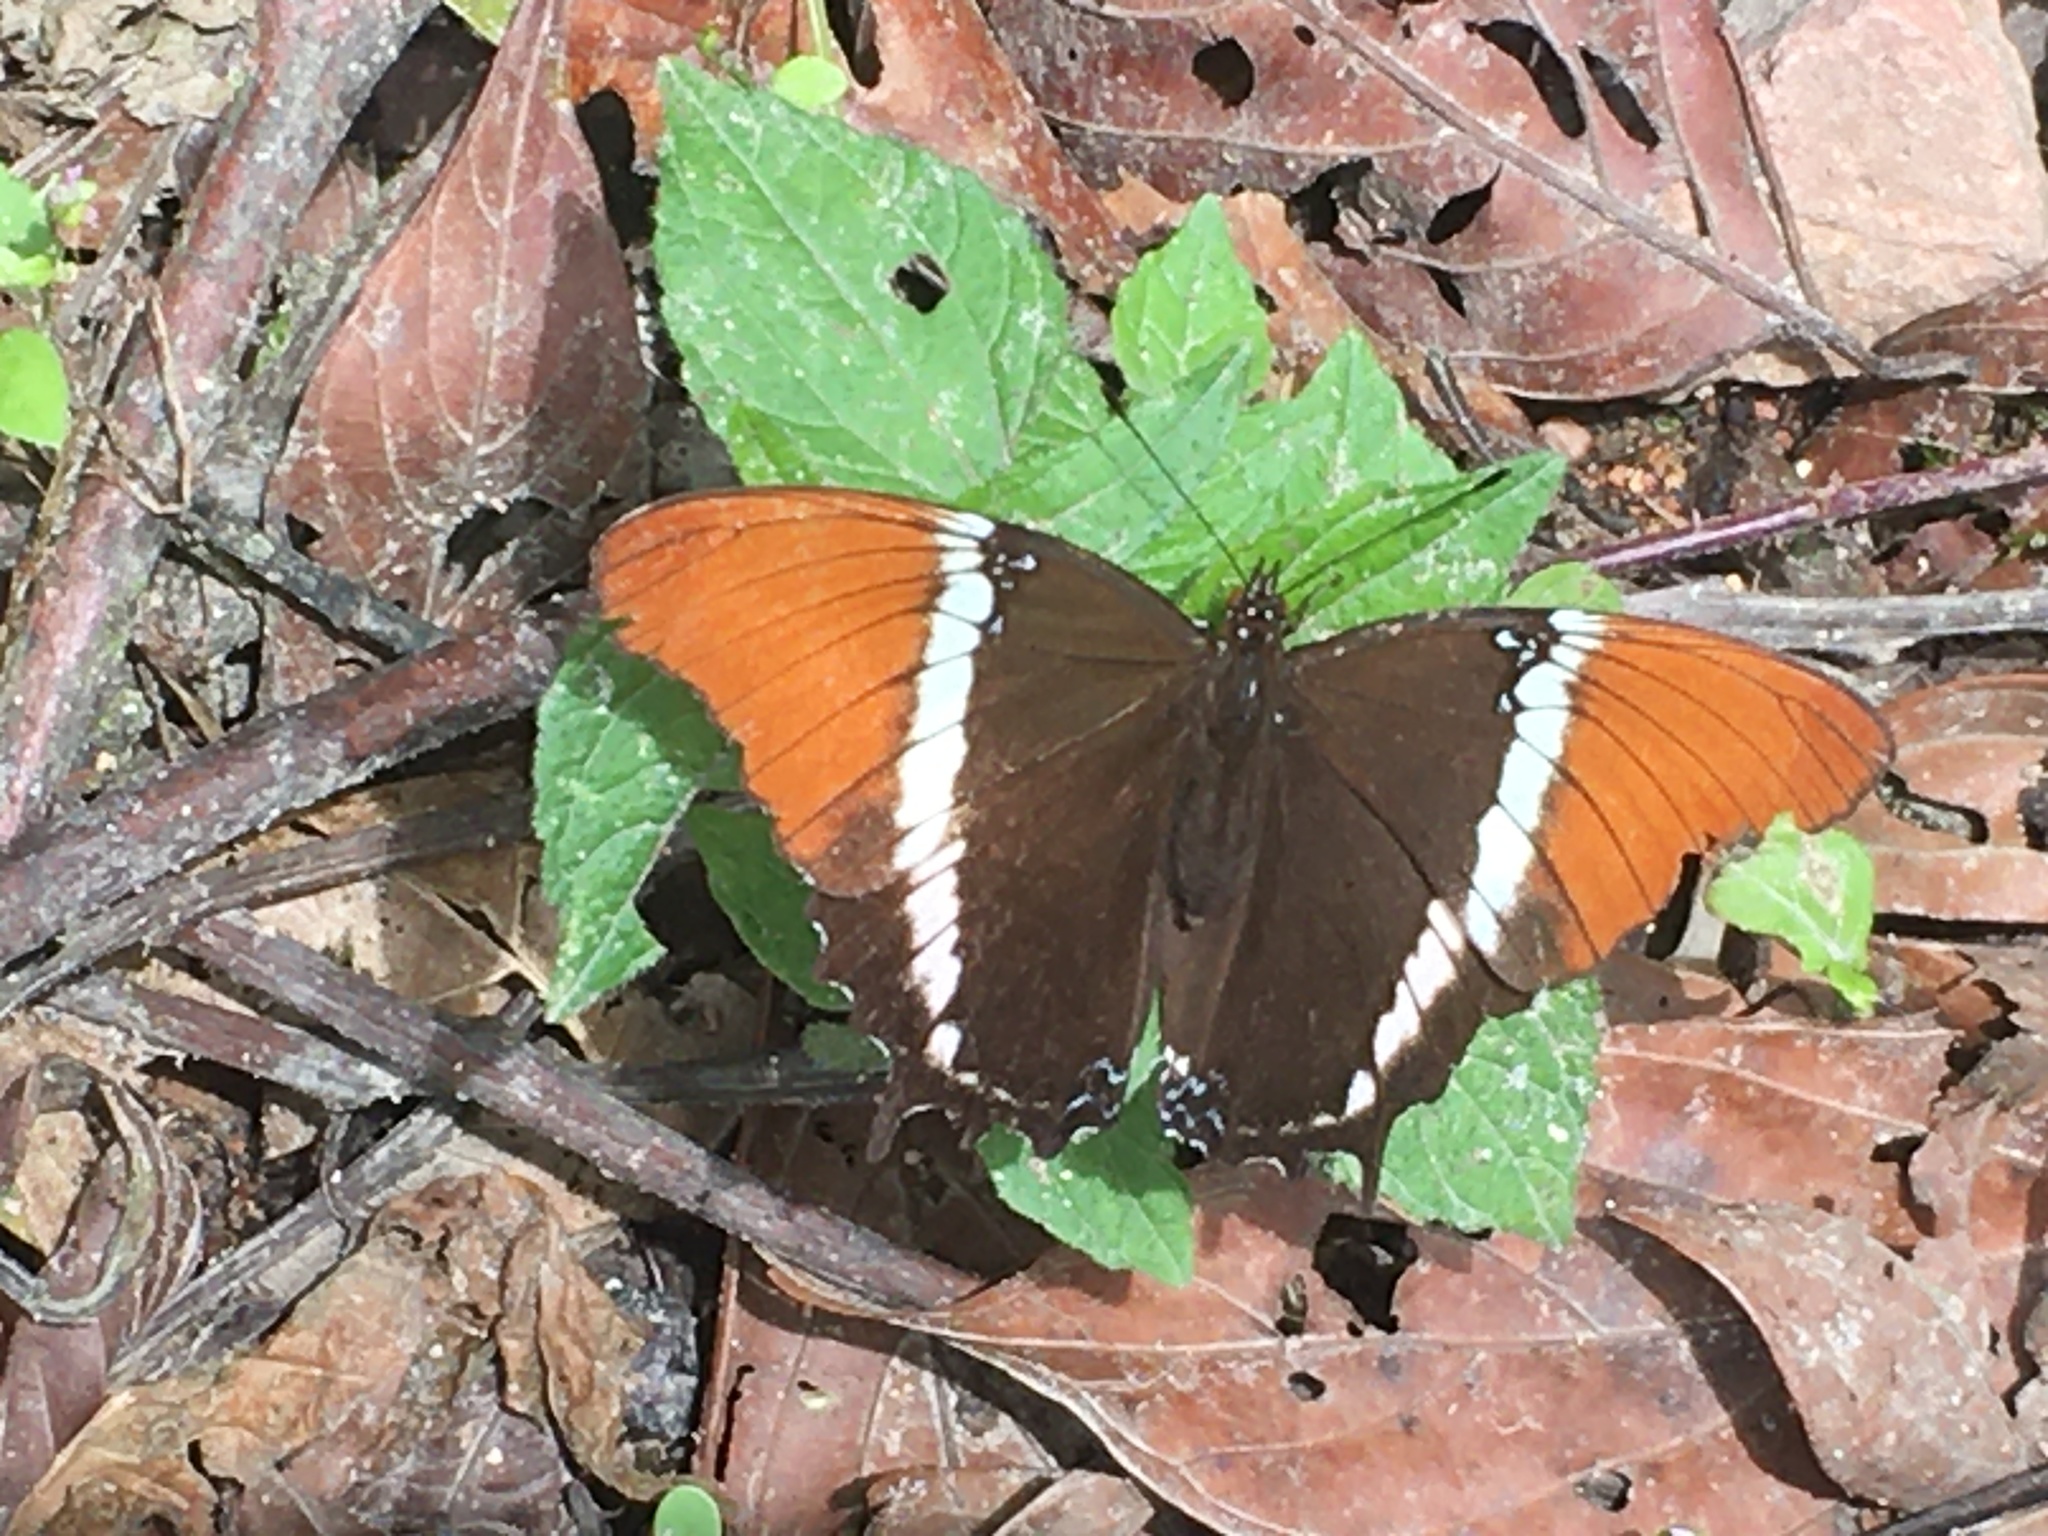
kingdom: Animalia
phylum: Arthropoda
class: Insecta
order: Lepidoptera
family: Nymphalidae
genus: Siproeta
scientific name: Siproeta epaphus
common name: Rusty-tipped page
